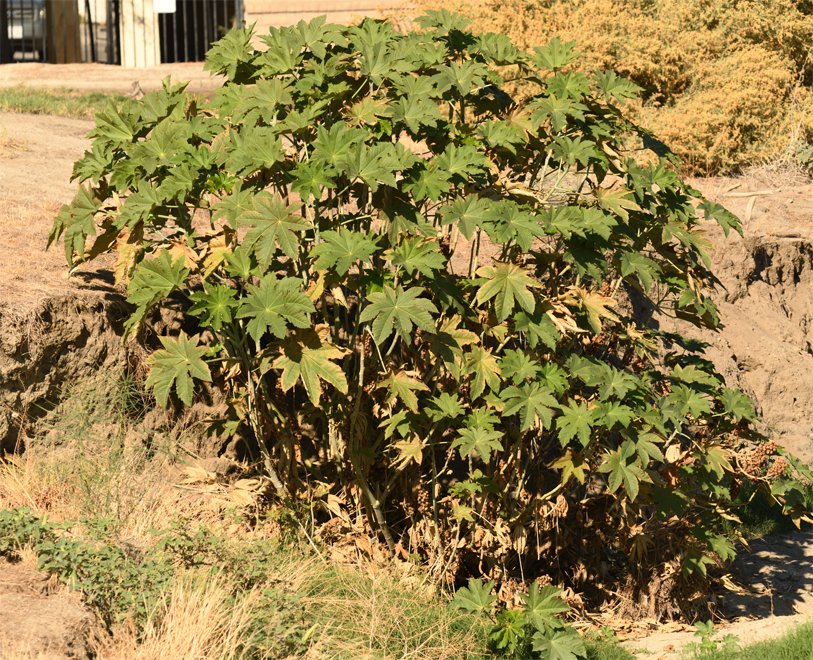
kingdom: Plantae
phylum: Tracheophyta
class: Magnoliopsida
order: Malpighiales
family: Euphorbiaceae
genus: Ricinus
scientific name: Ricinus communis
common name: Castor-oil-plant
